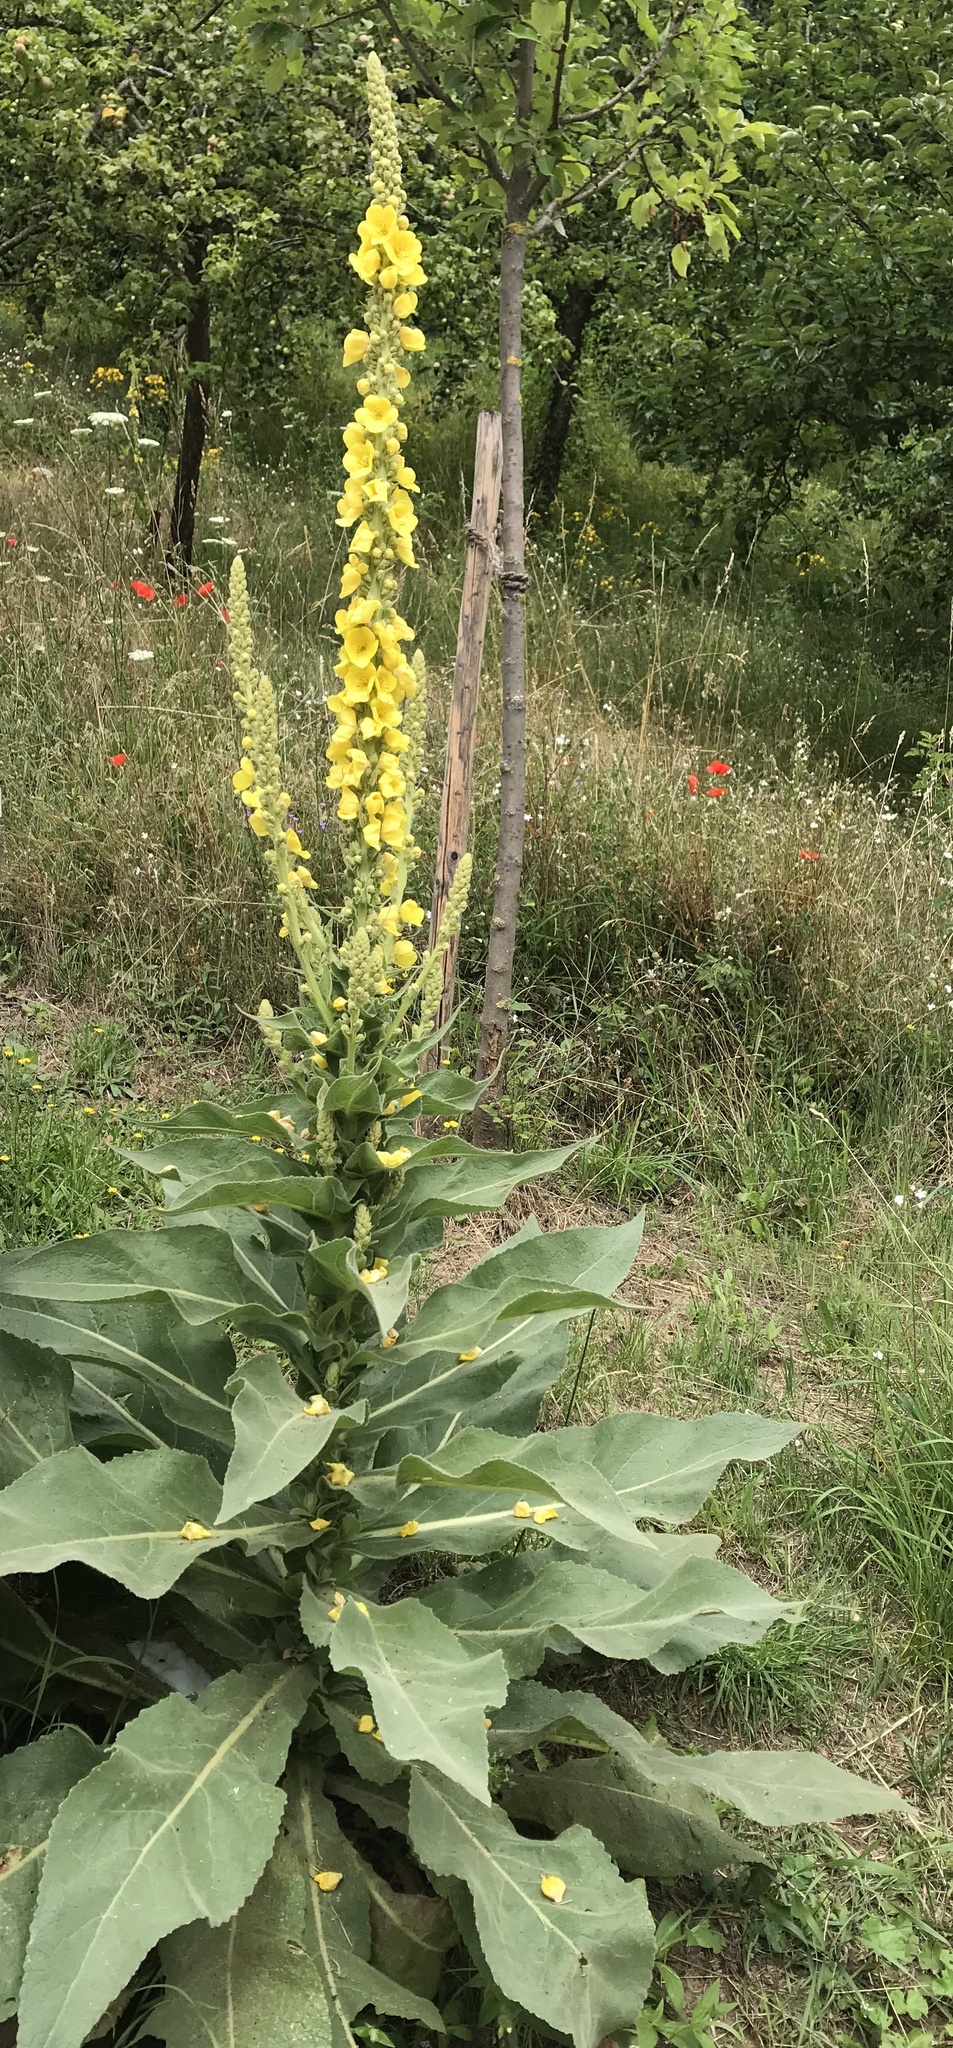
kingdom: Plantae
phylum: Tracheophyta
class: Magnoliopsida
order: Lamiales
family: Scrophulariaceae
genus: Verbascum
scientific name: Verbascum densiflorum
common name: Dense-flowered mullein
